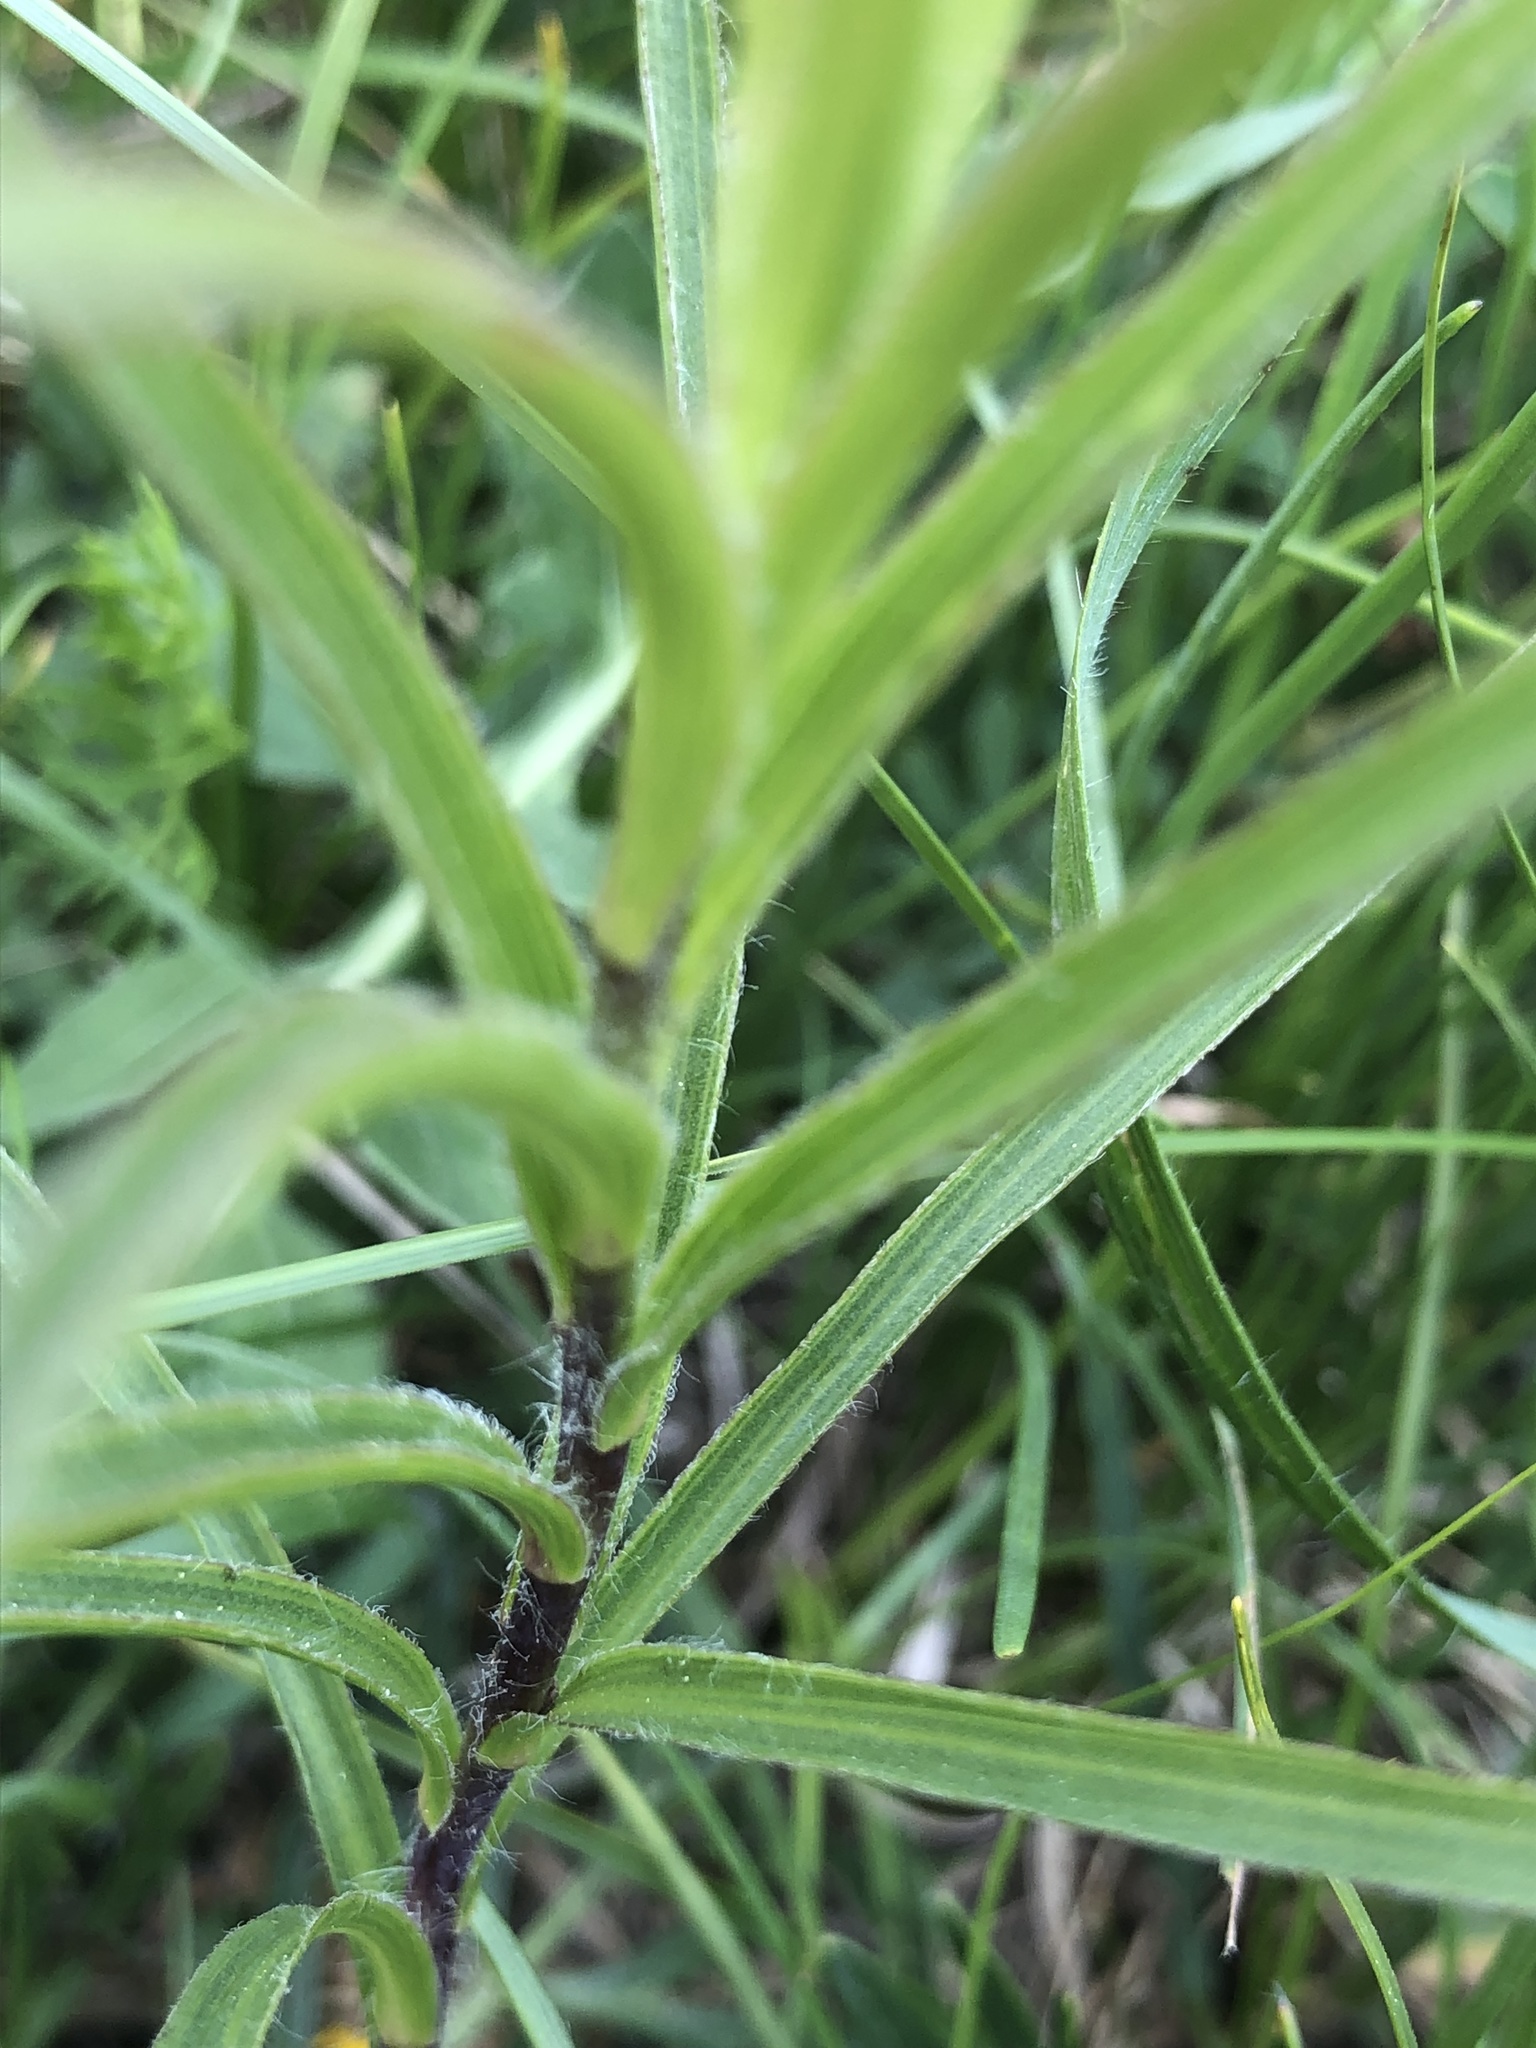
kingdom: Plantae
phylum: Tracheophyta
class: Magnoliopsida
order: Asterales
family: Asteraceae
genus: Pentanema
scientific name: Pentanema ensifolium
